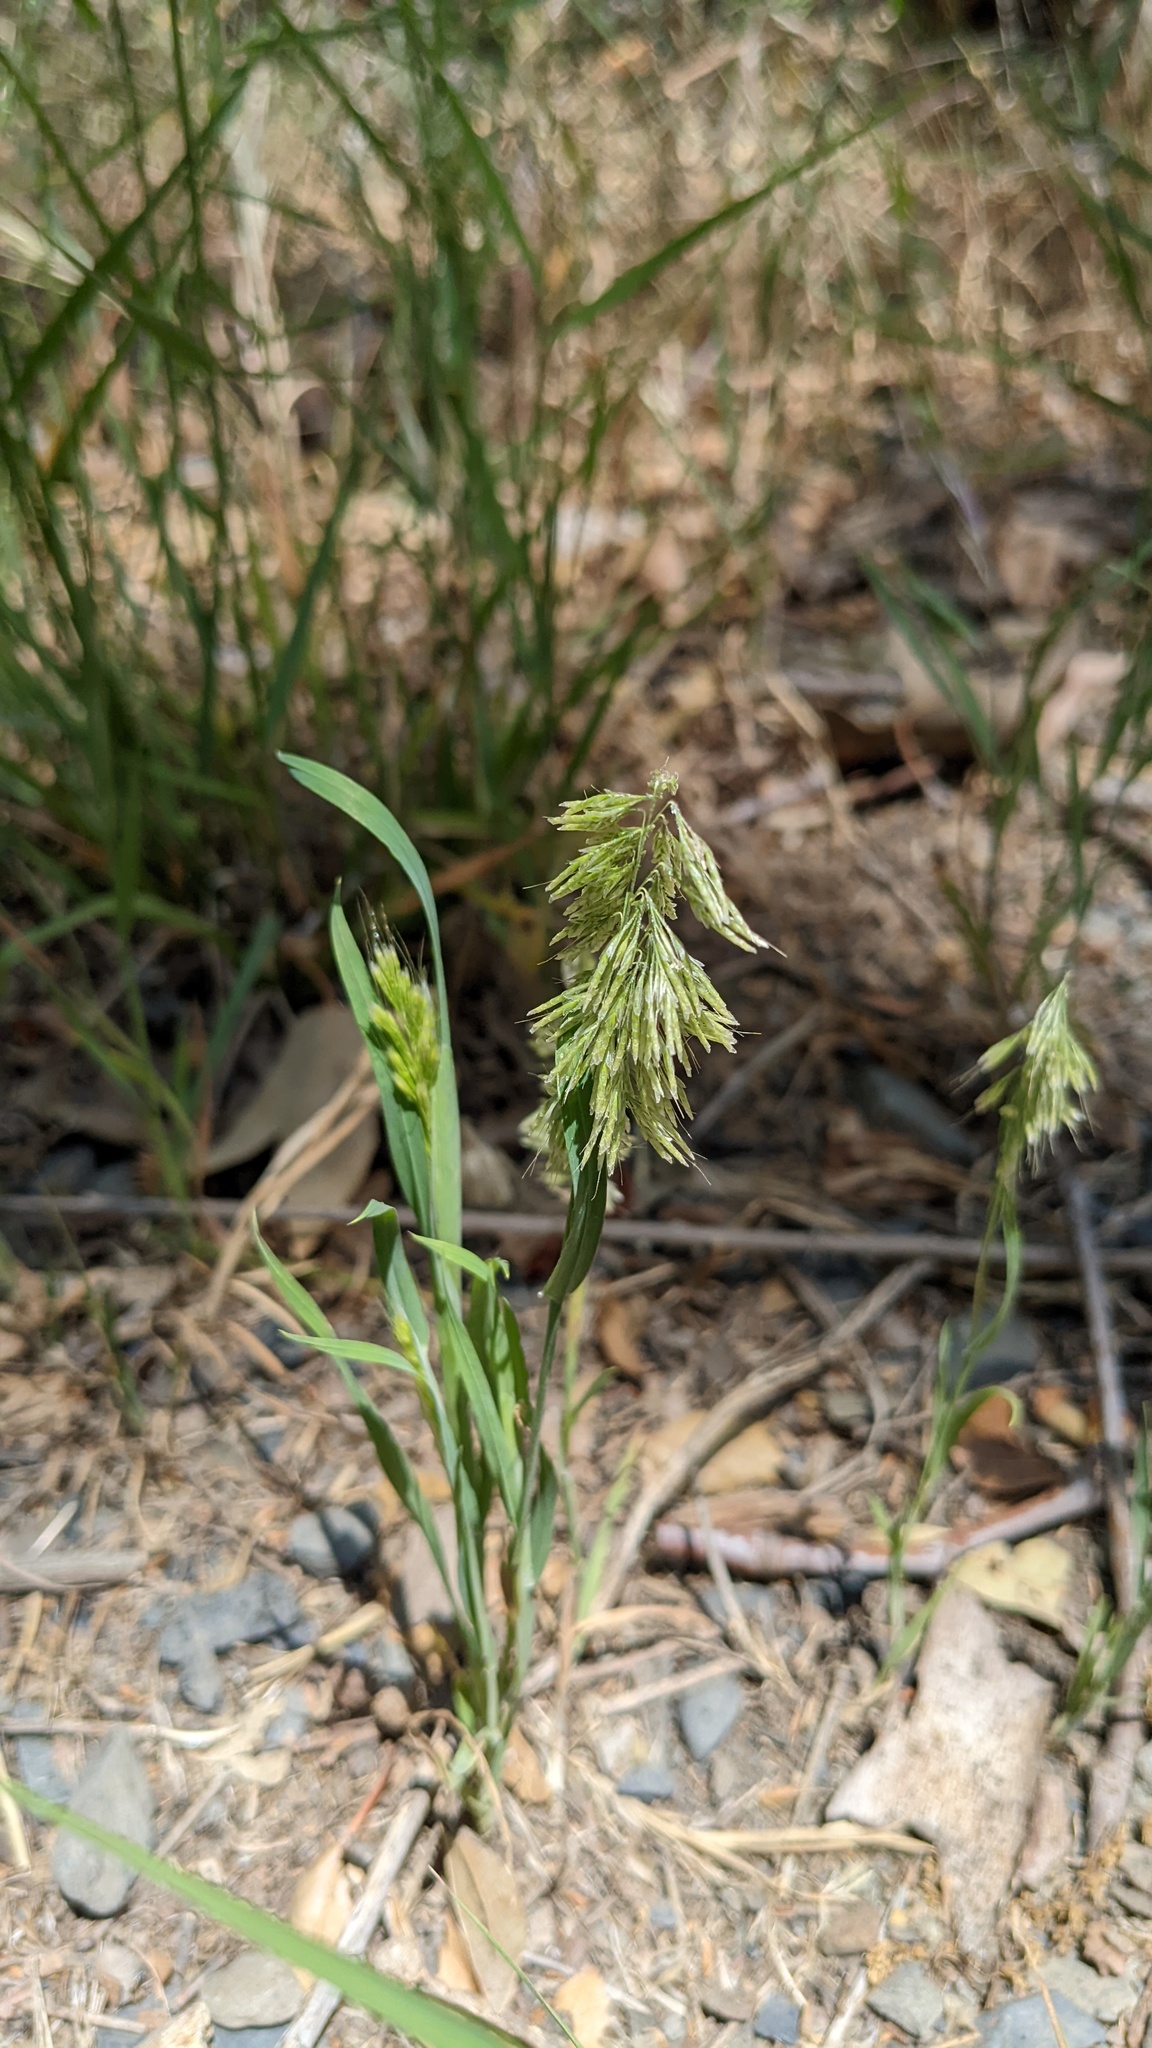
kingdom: Plantae
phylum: Tracheophyta
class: Liliopsida
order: Poales
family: Poaceae
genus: Lamarckia
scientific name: Lamarckia aurea
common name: Golden dog's-tail
